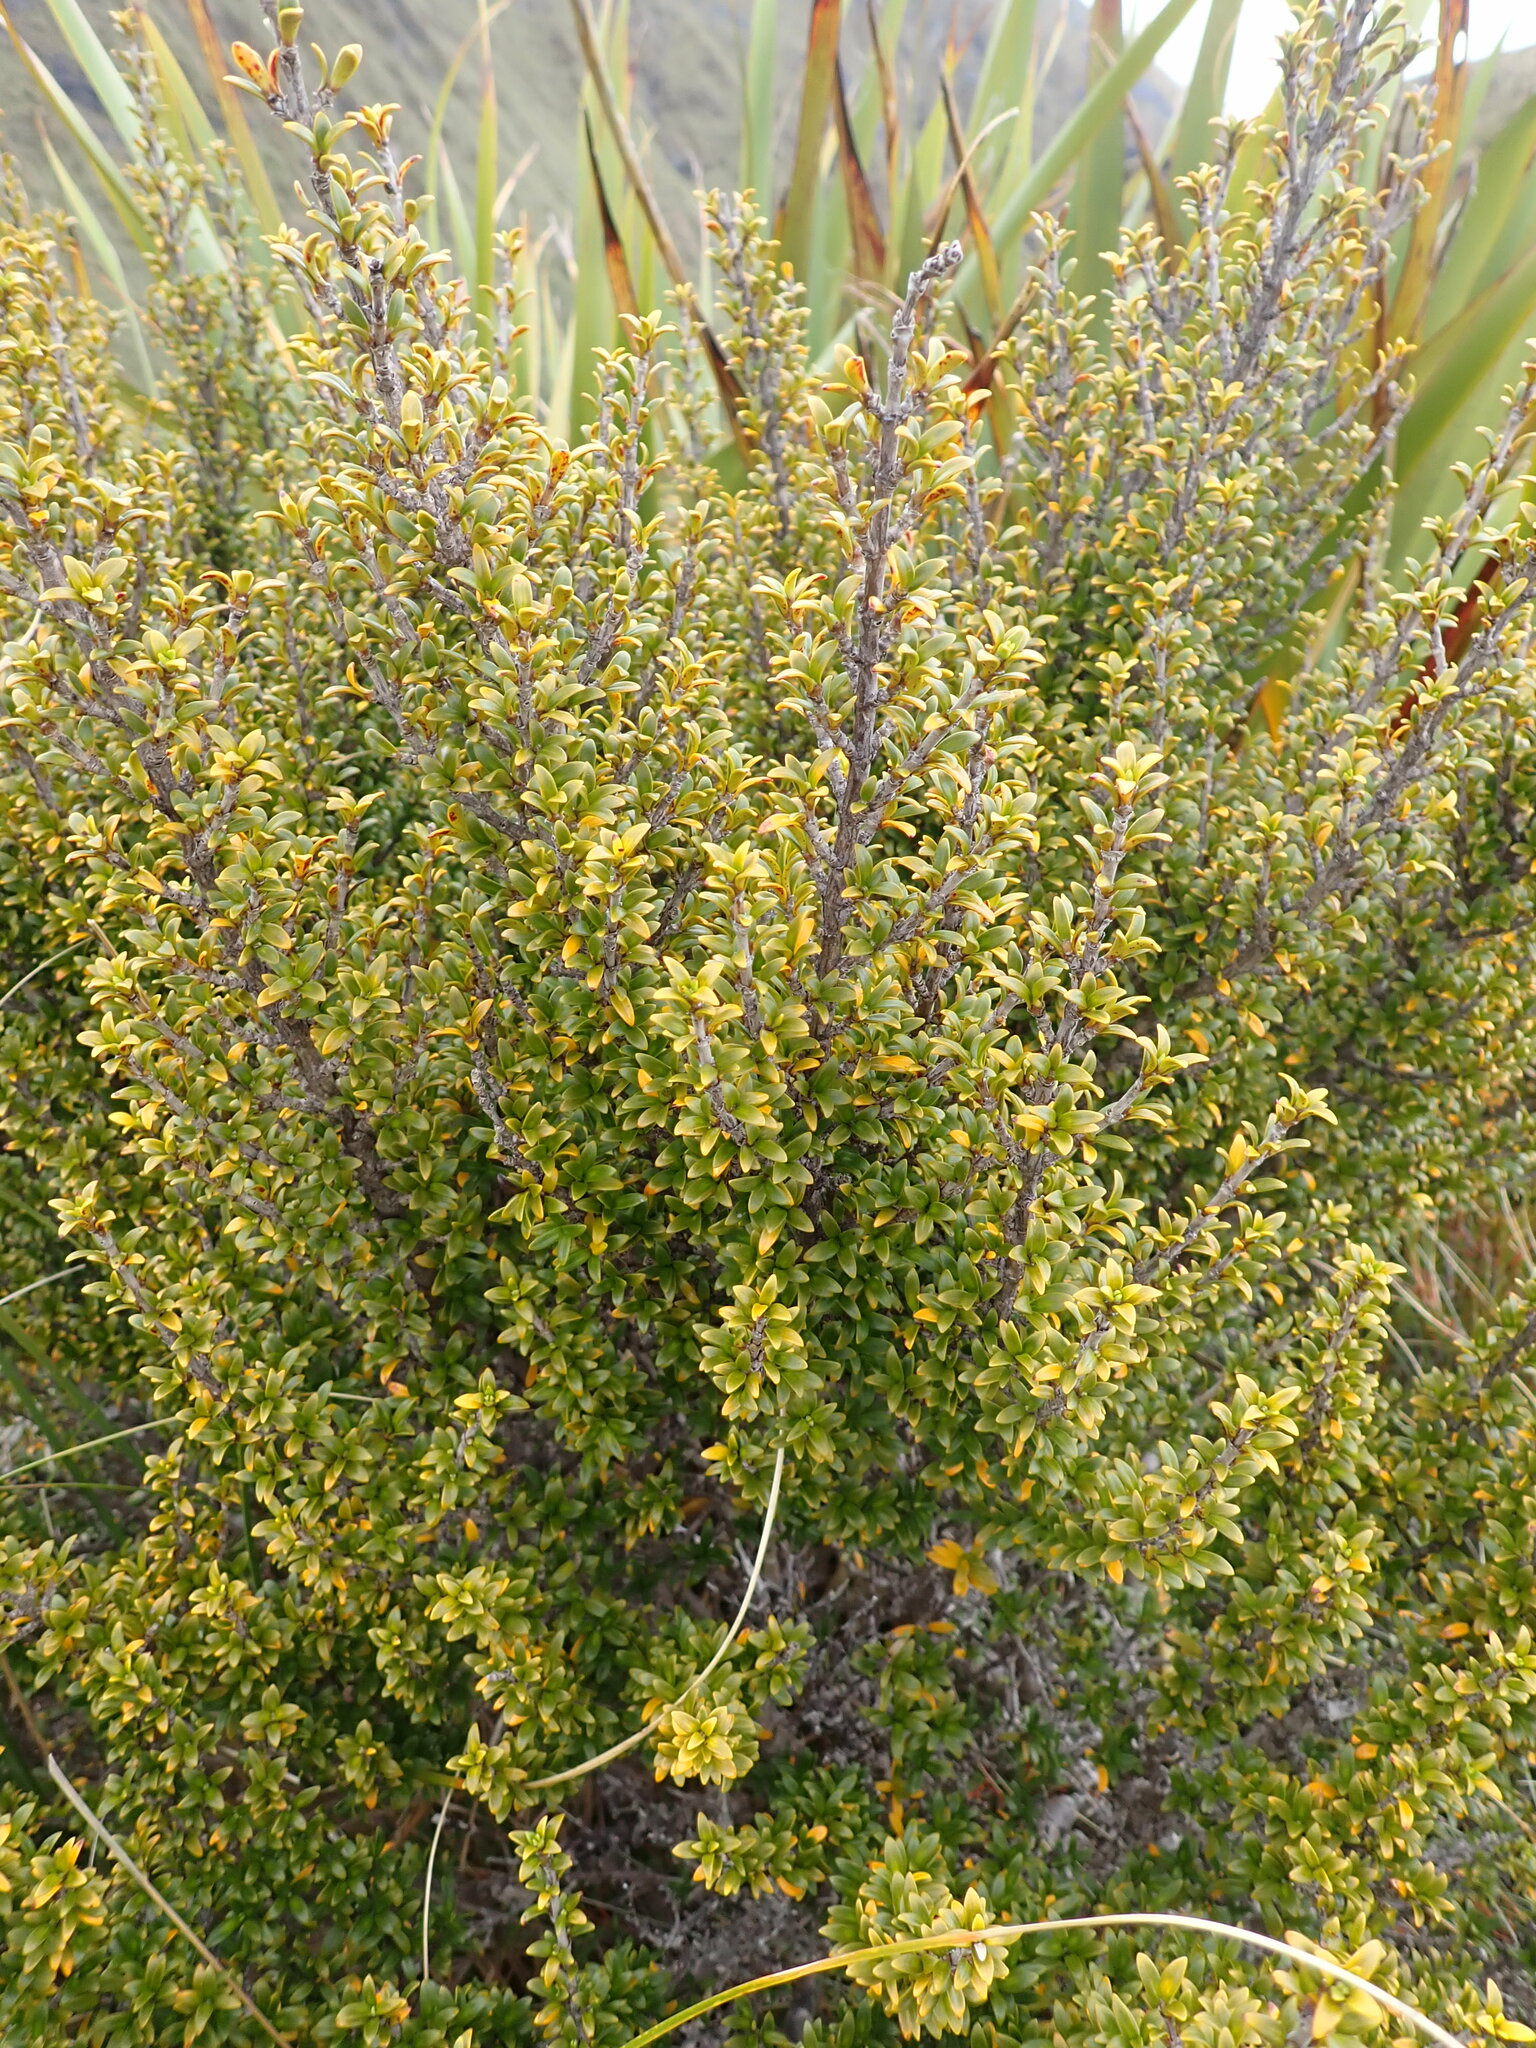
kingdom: Plantae
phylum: Tracheophyta
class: Magnoliopsida
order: Gentianales
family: Rubiaceae
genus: Coprosma
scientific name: Coprosma pseudocuneata
